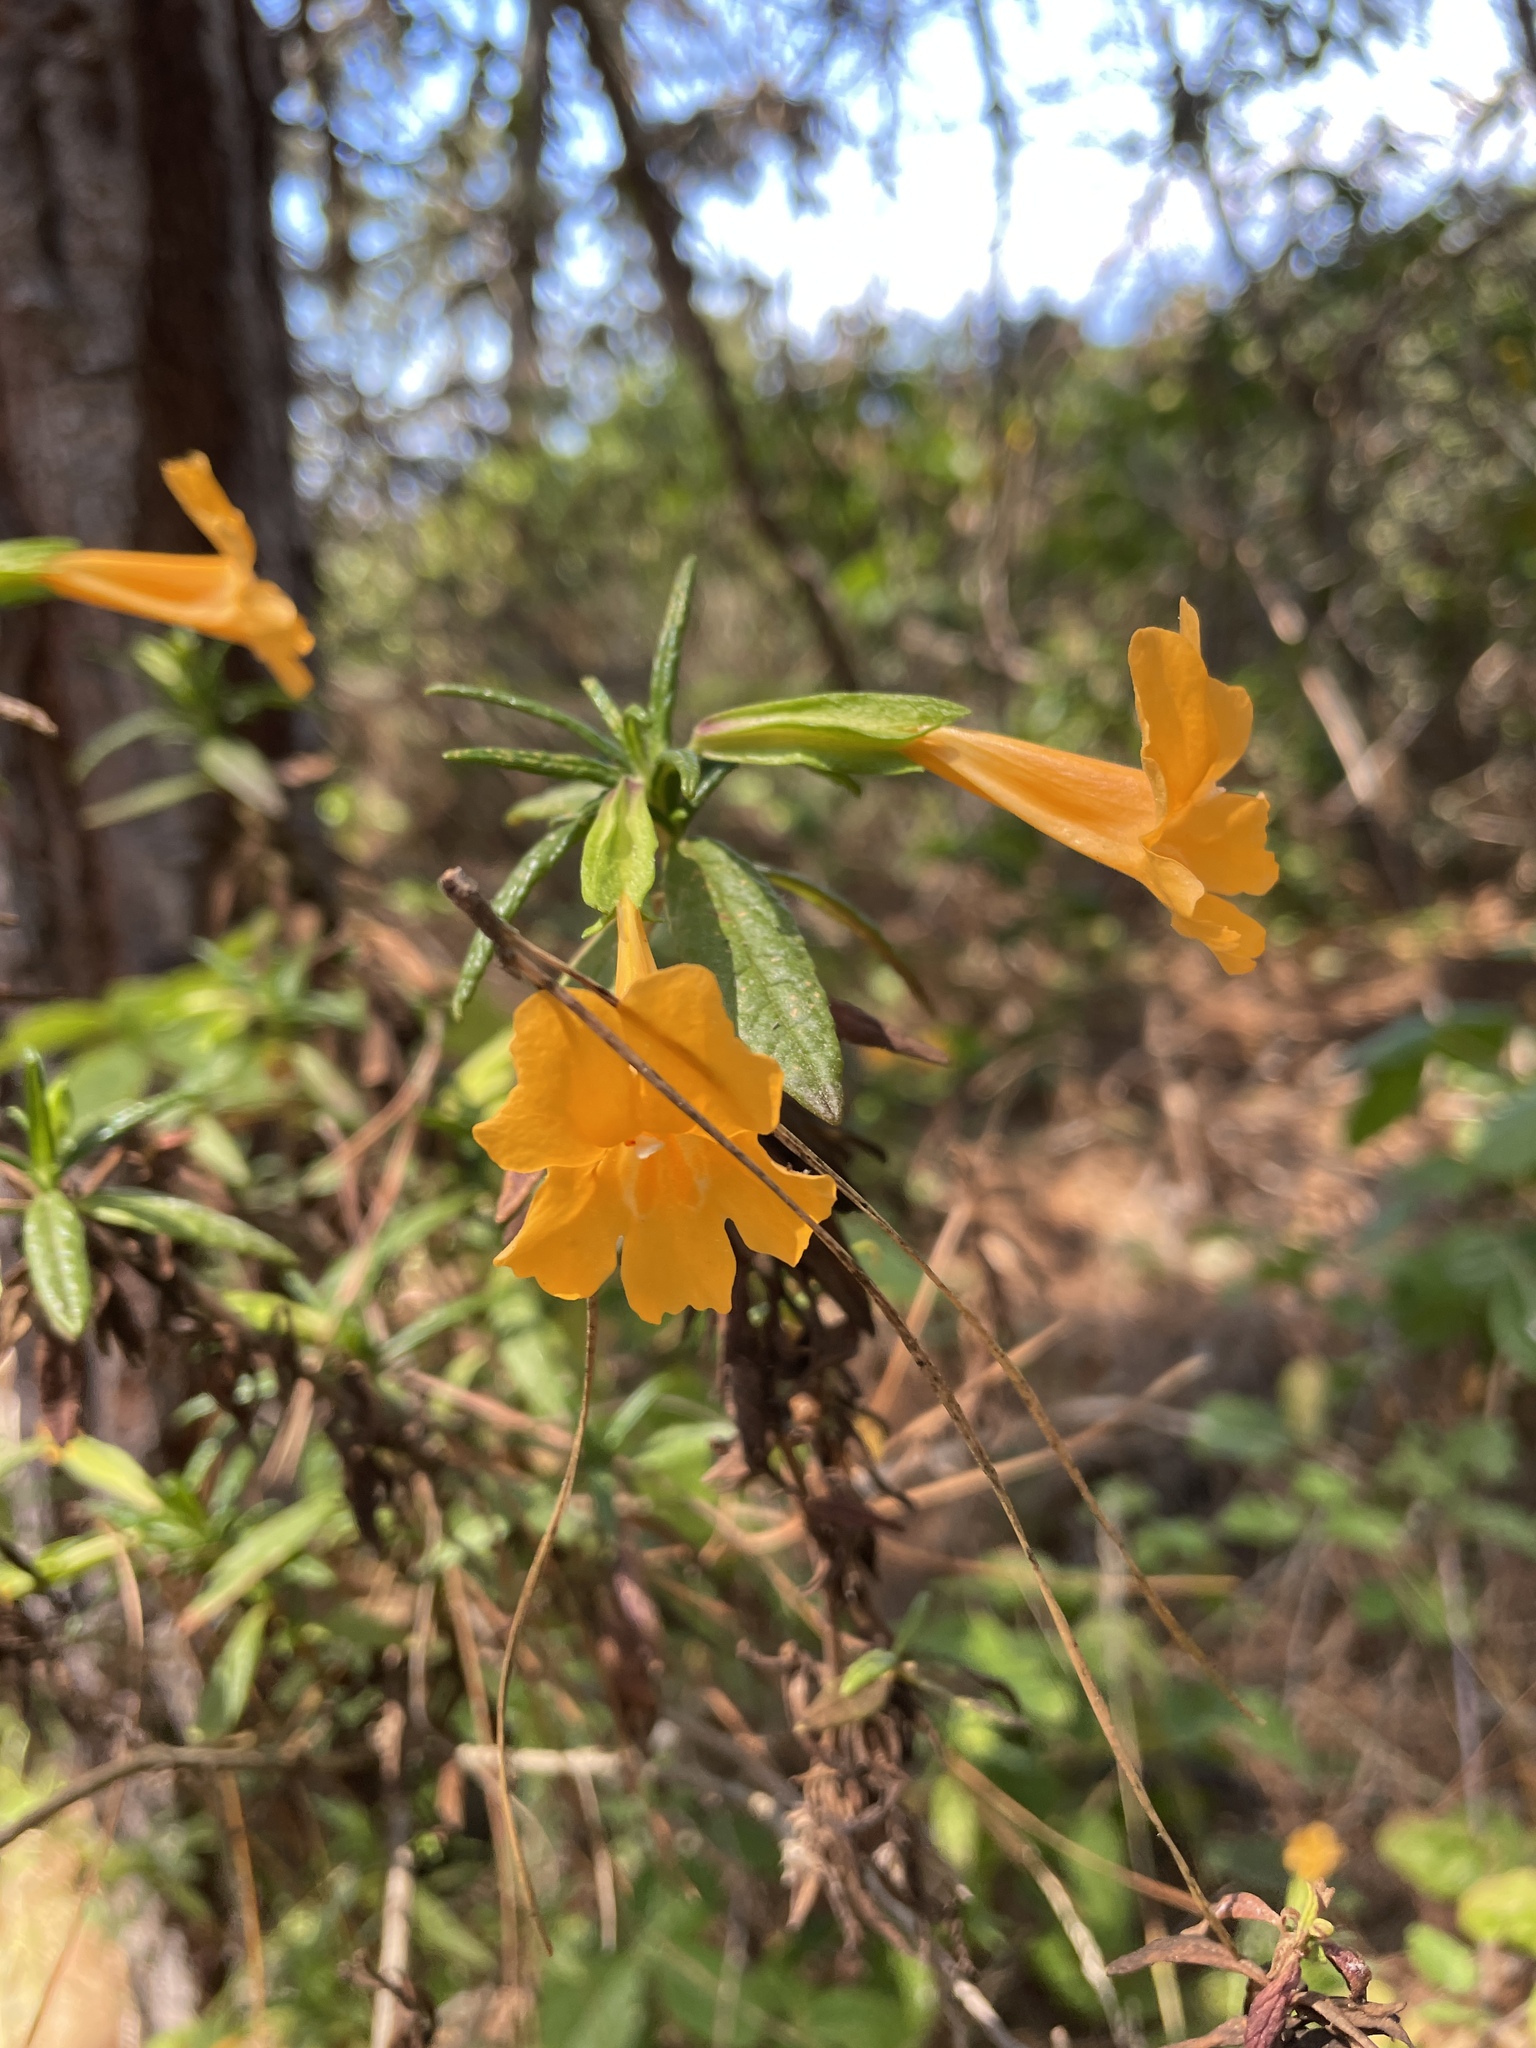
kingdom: Plantae
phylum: Tracheophyta
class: Magnoliopsida
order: Lamiales
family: Phrymaceae
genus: Diplacus
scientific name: Diplacus aurantiacus
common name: Bush monkey-flower
